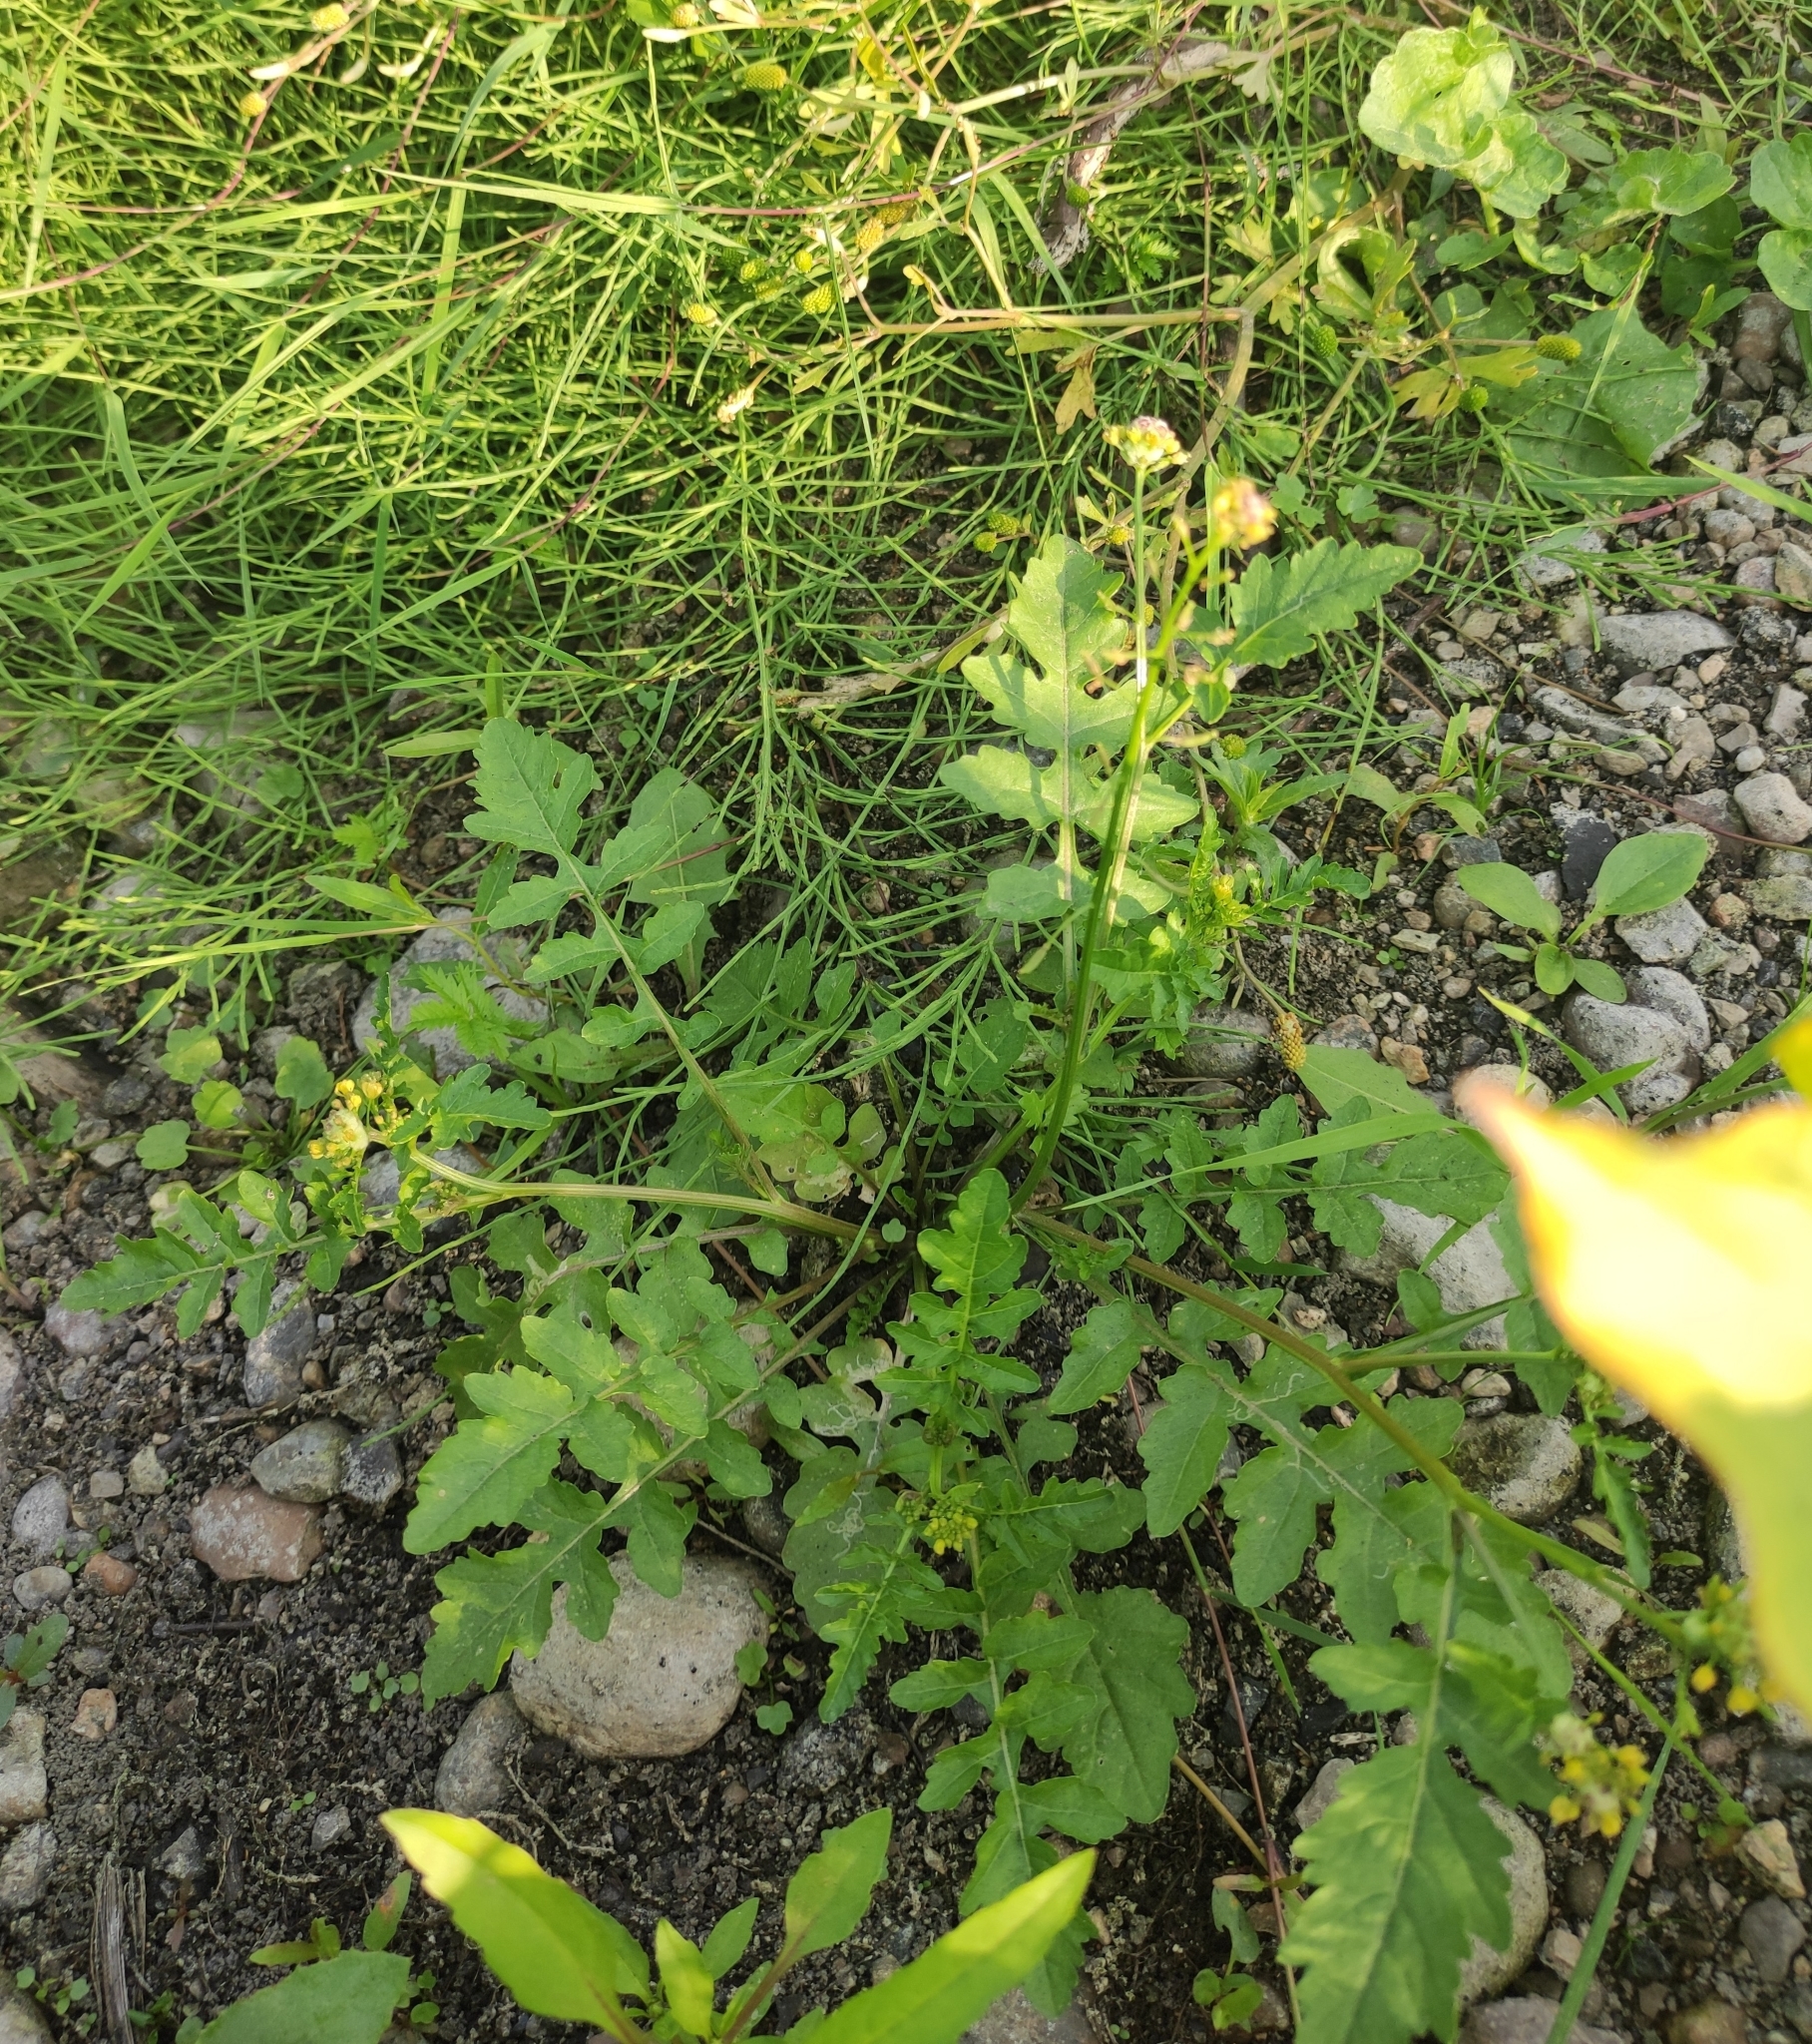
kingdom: Plantae
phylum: Tracheophyta
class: Magnoliopsida
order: Brassicales
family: Brassicaceae
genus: Rorippa
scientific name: Rorippa palustris
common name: Marsh yellow-cress
